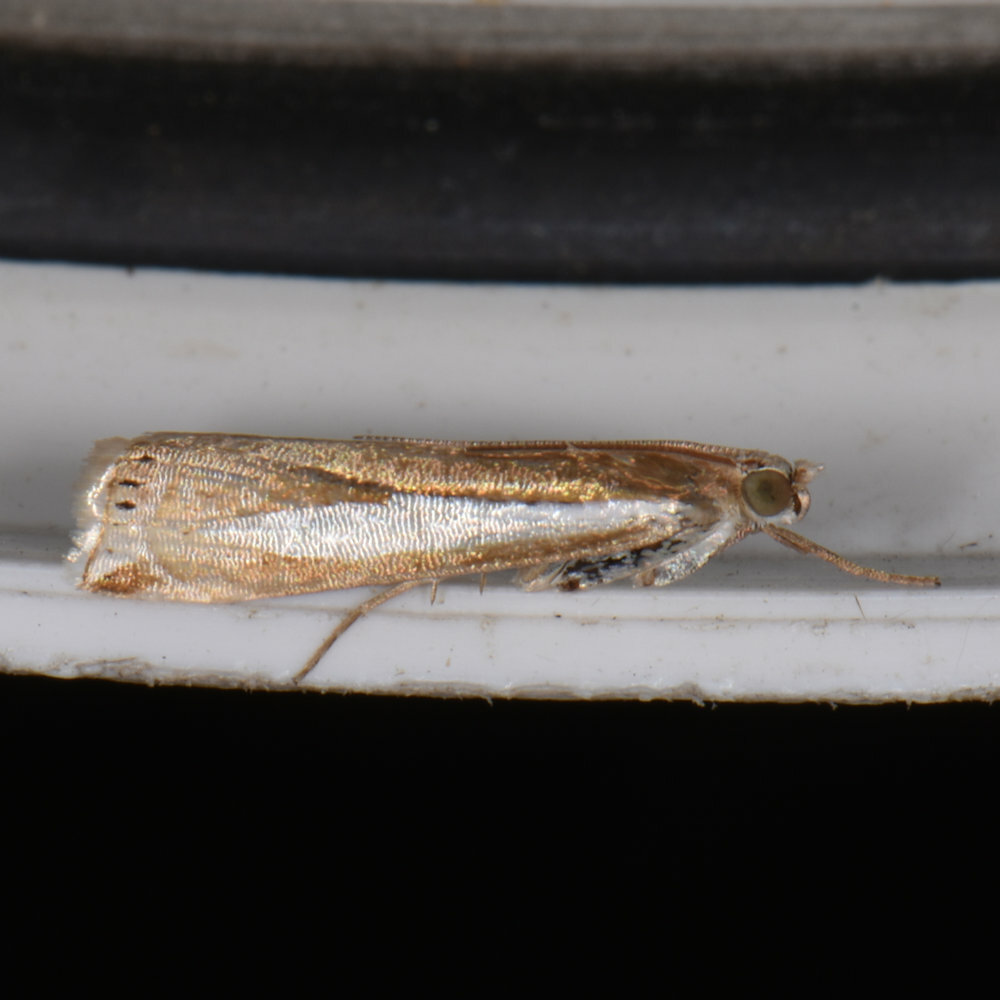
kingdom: Animalia
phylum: Arthropoda
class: Insecta
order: Lepidoptera
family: Crambidae
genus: Crambus
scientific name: Crambus praefectellus
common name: Common grass-veneer
